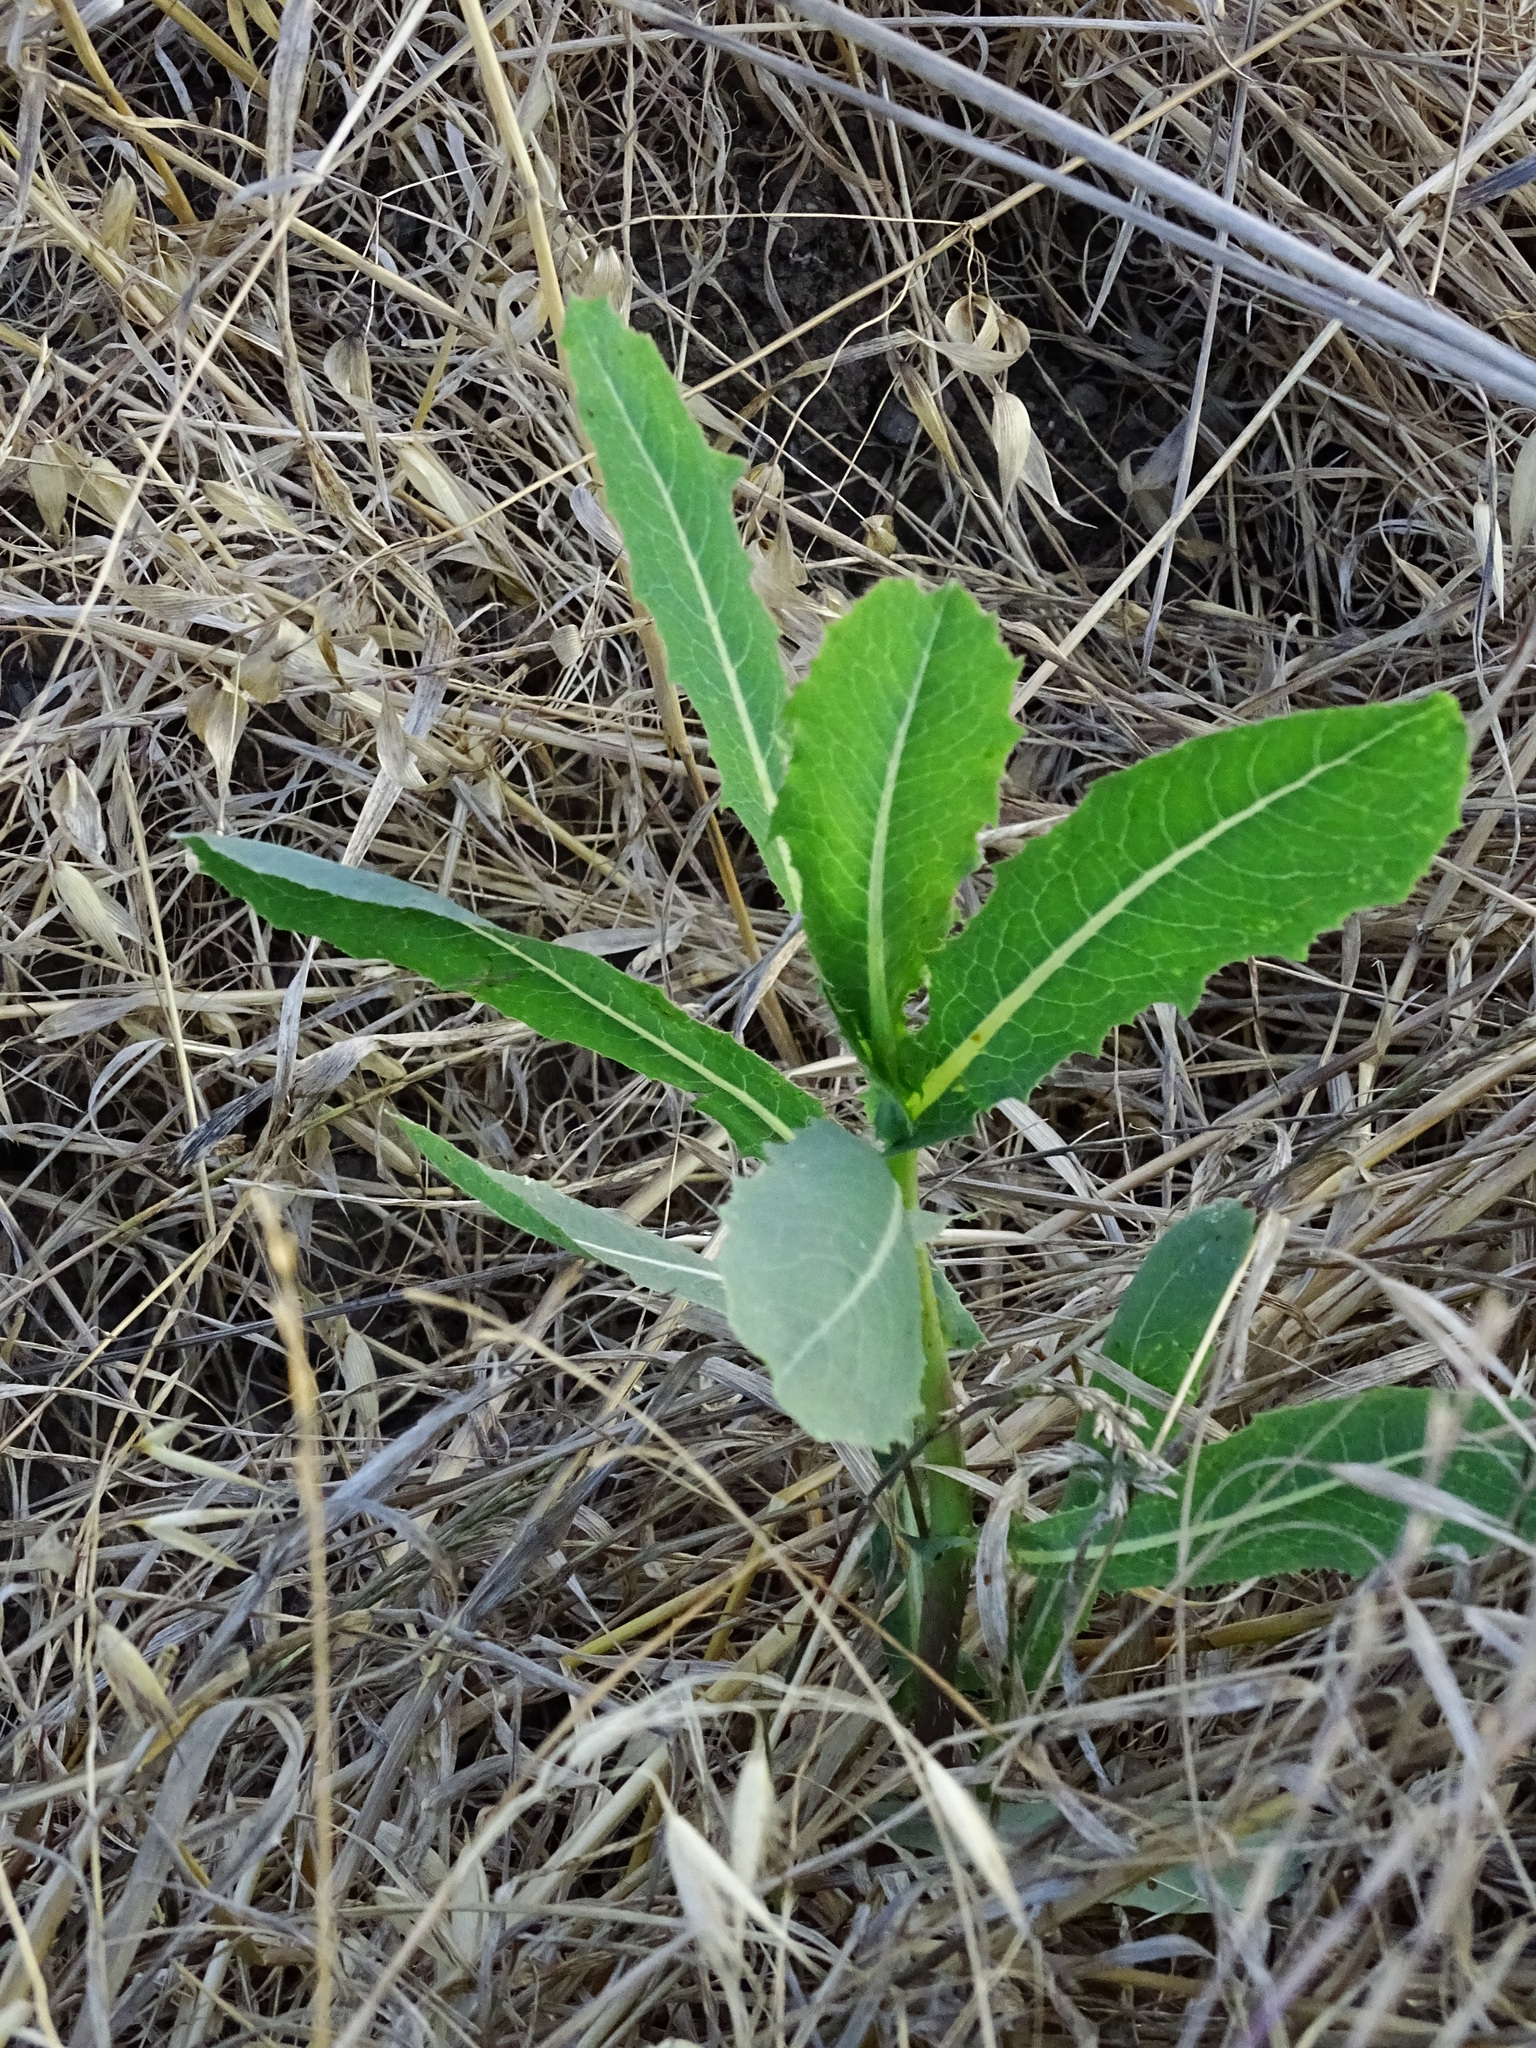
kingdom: Plantae
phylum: Tracheophyta
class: Magnoliopsida
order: Asterales
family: Asteraceae
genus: Lactuca
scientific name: Lactuca serriola
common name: Prickly lettuce
